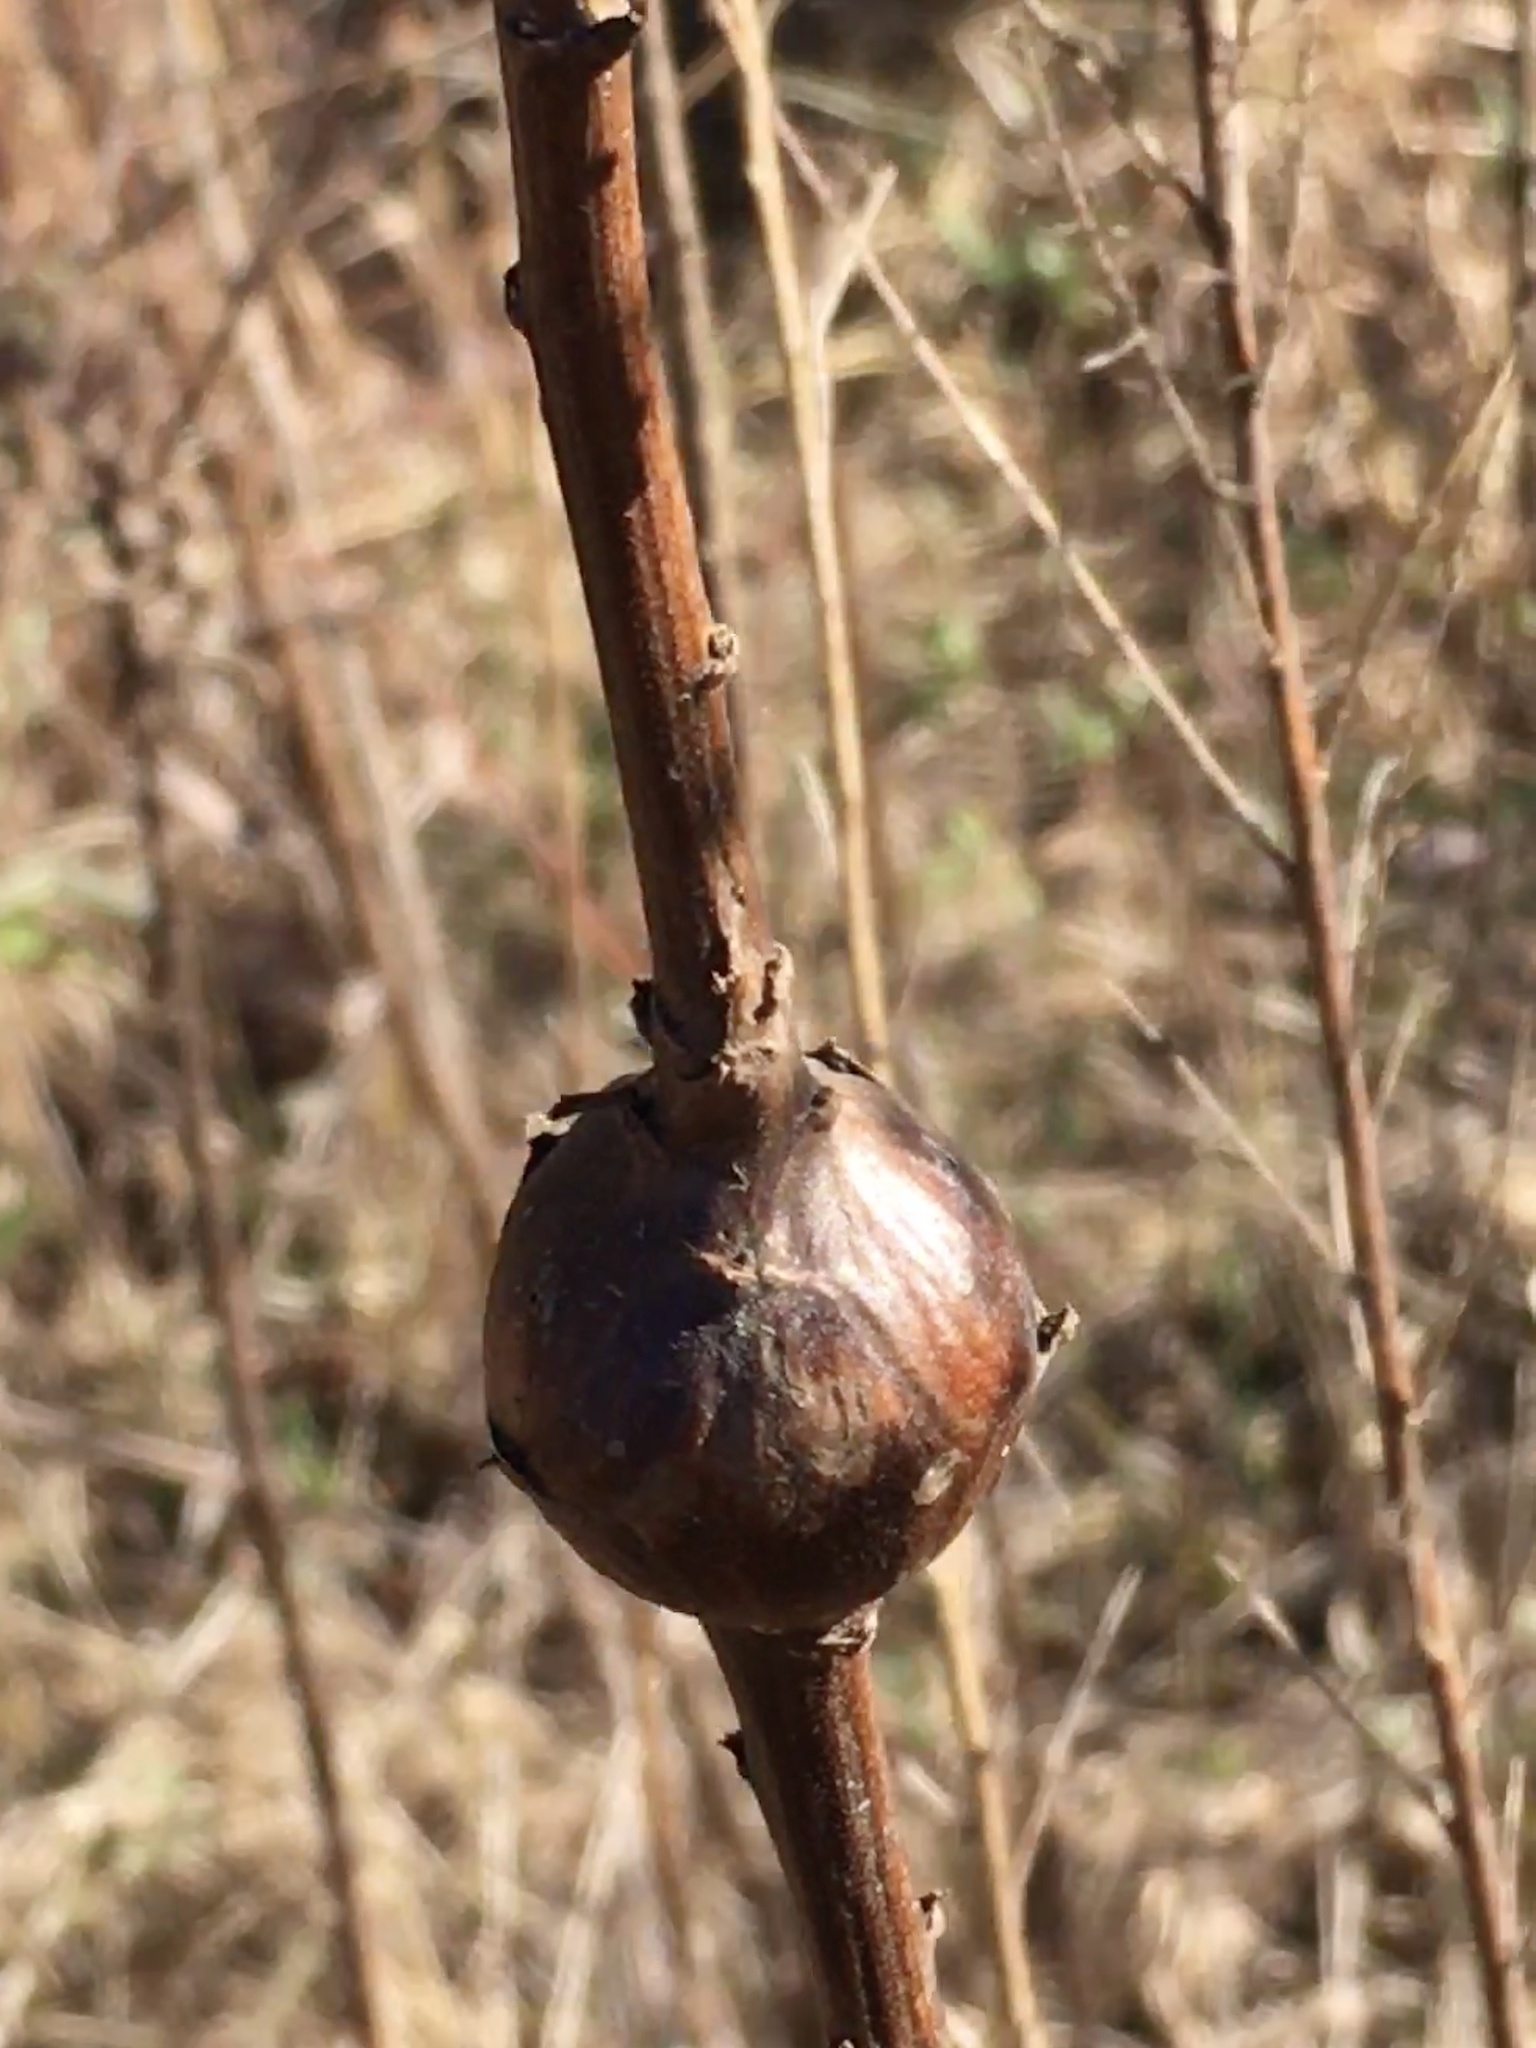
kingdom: Animalia
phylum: Arthropoda
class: Insecta
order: Diptera
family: Tephritidae
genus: Eurosta
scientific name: Eurosta solidaginis
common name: Goldenrod gall fly
